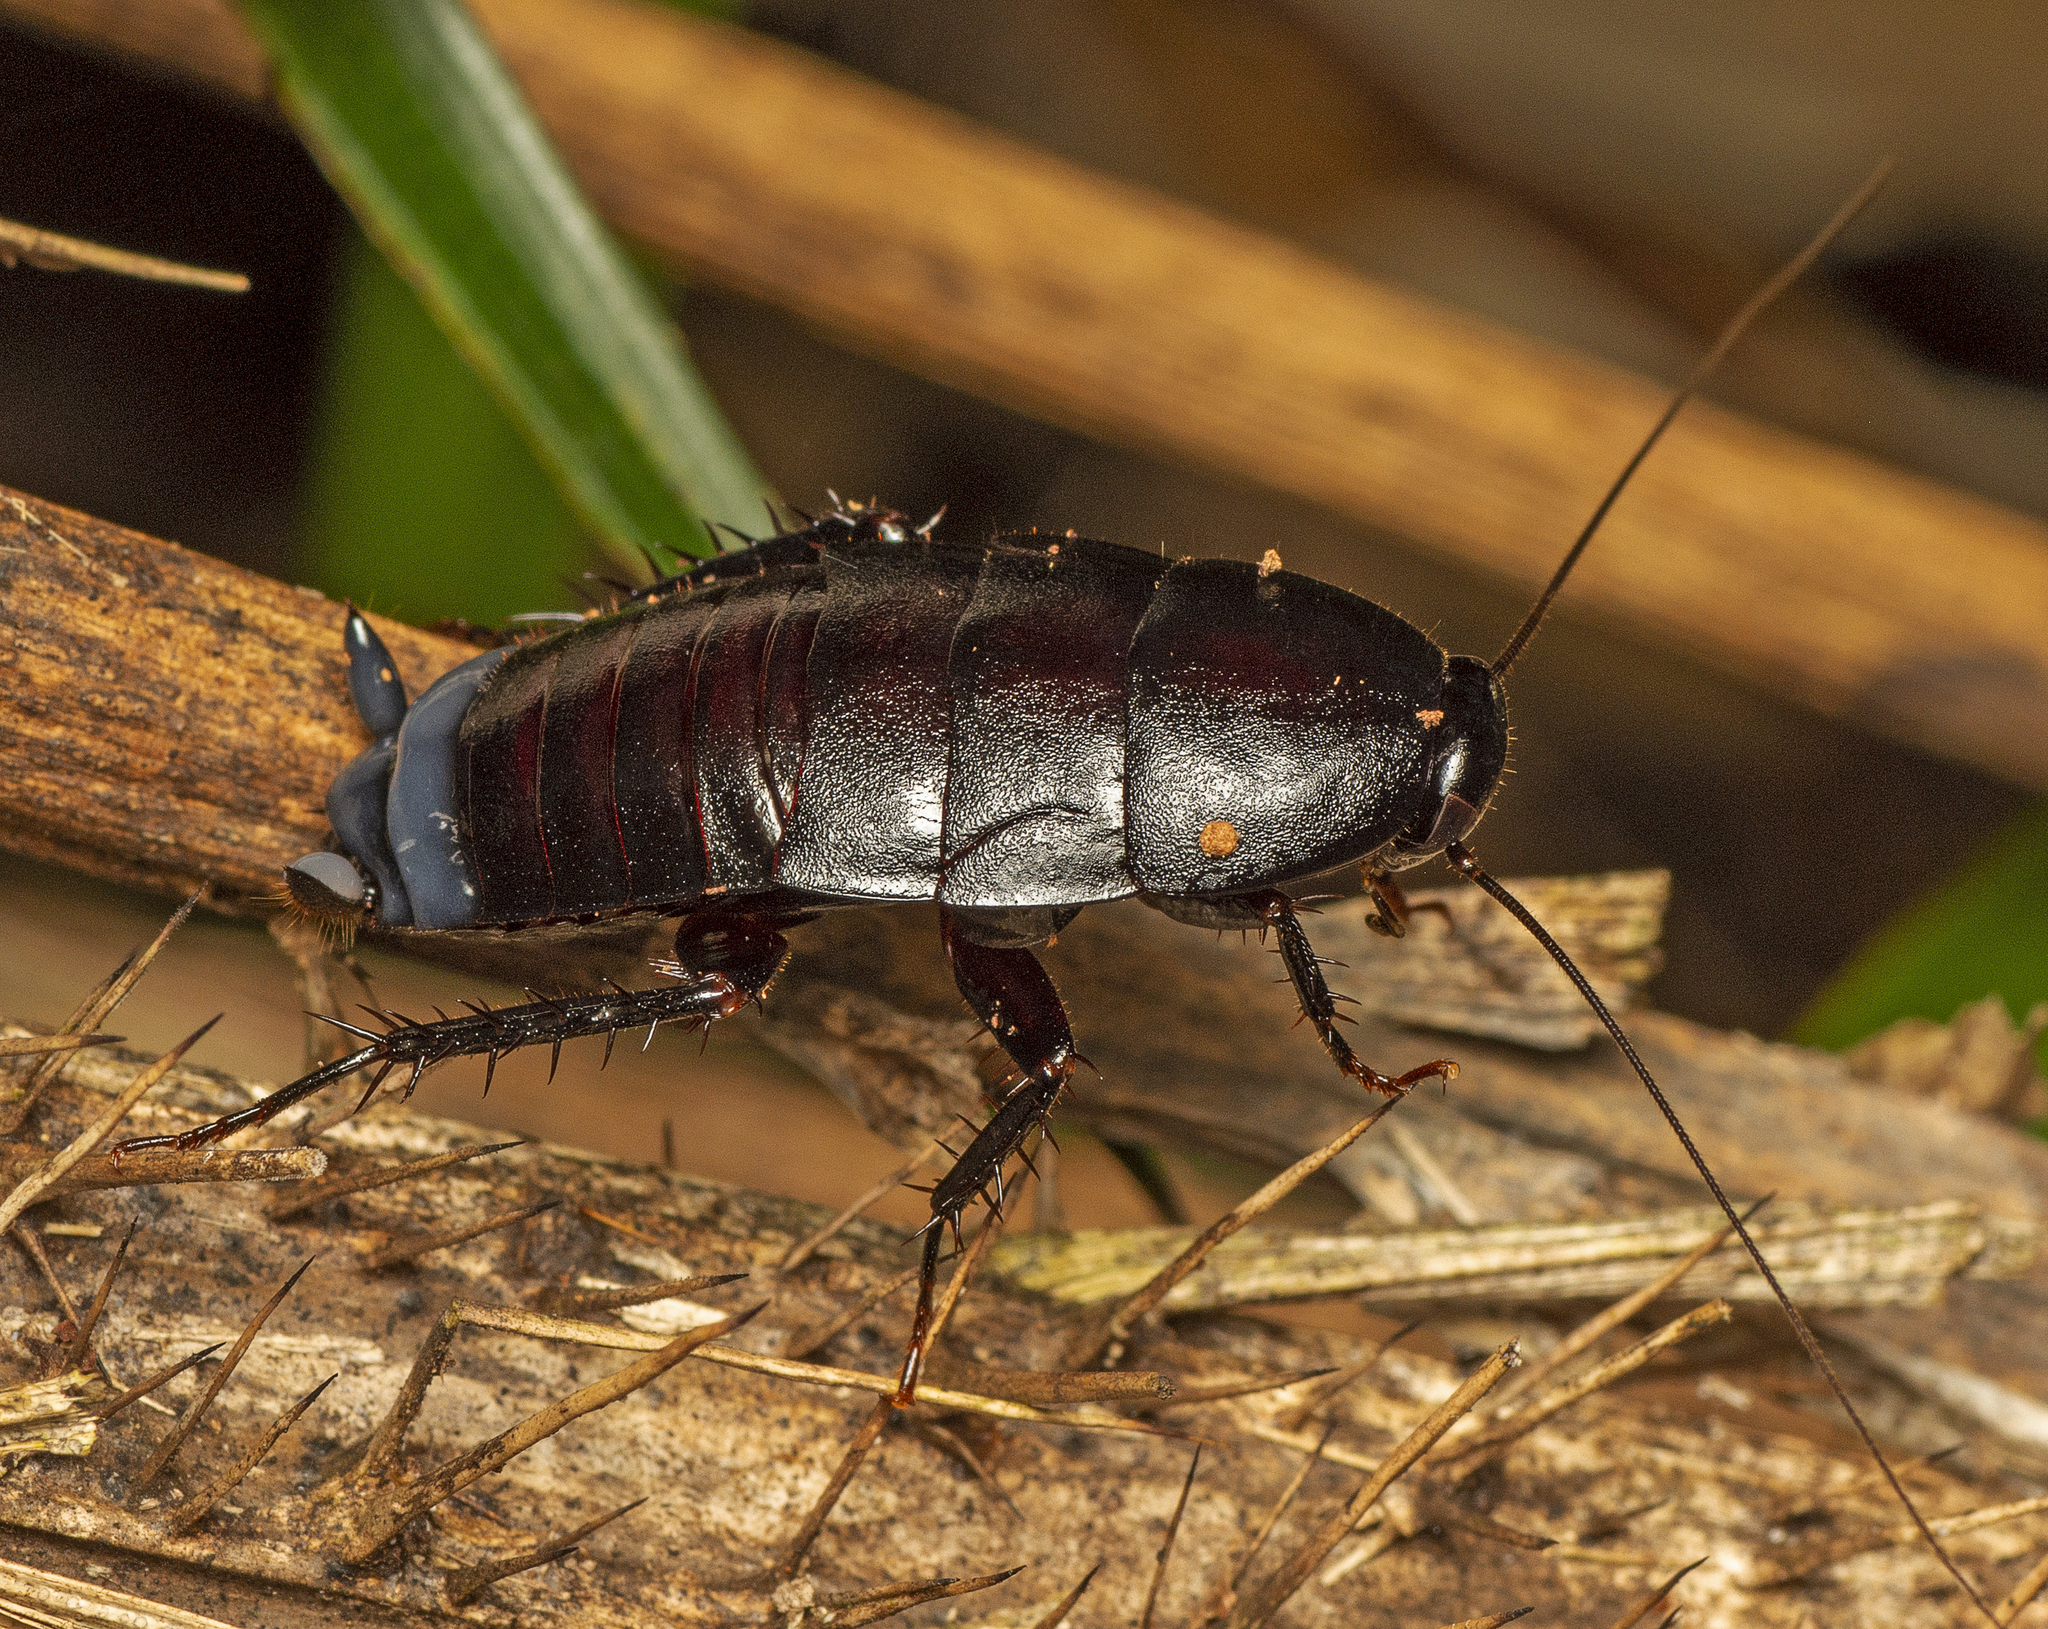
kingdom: Animalia
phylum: Arthropoda
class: Insecta
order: Blattodea
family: Blattidae
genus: Celatoblatta
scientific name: Celatoblatta
